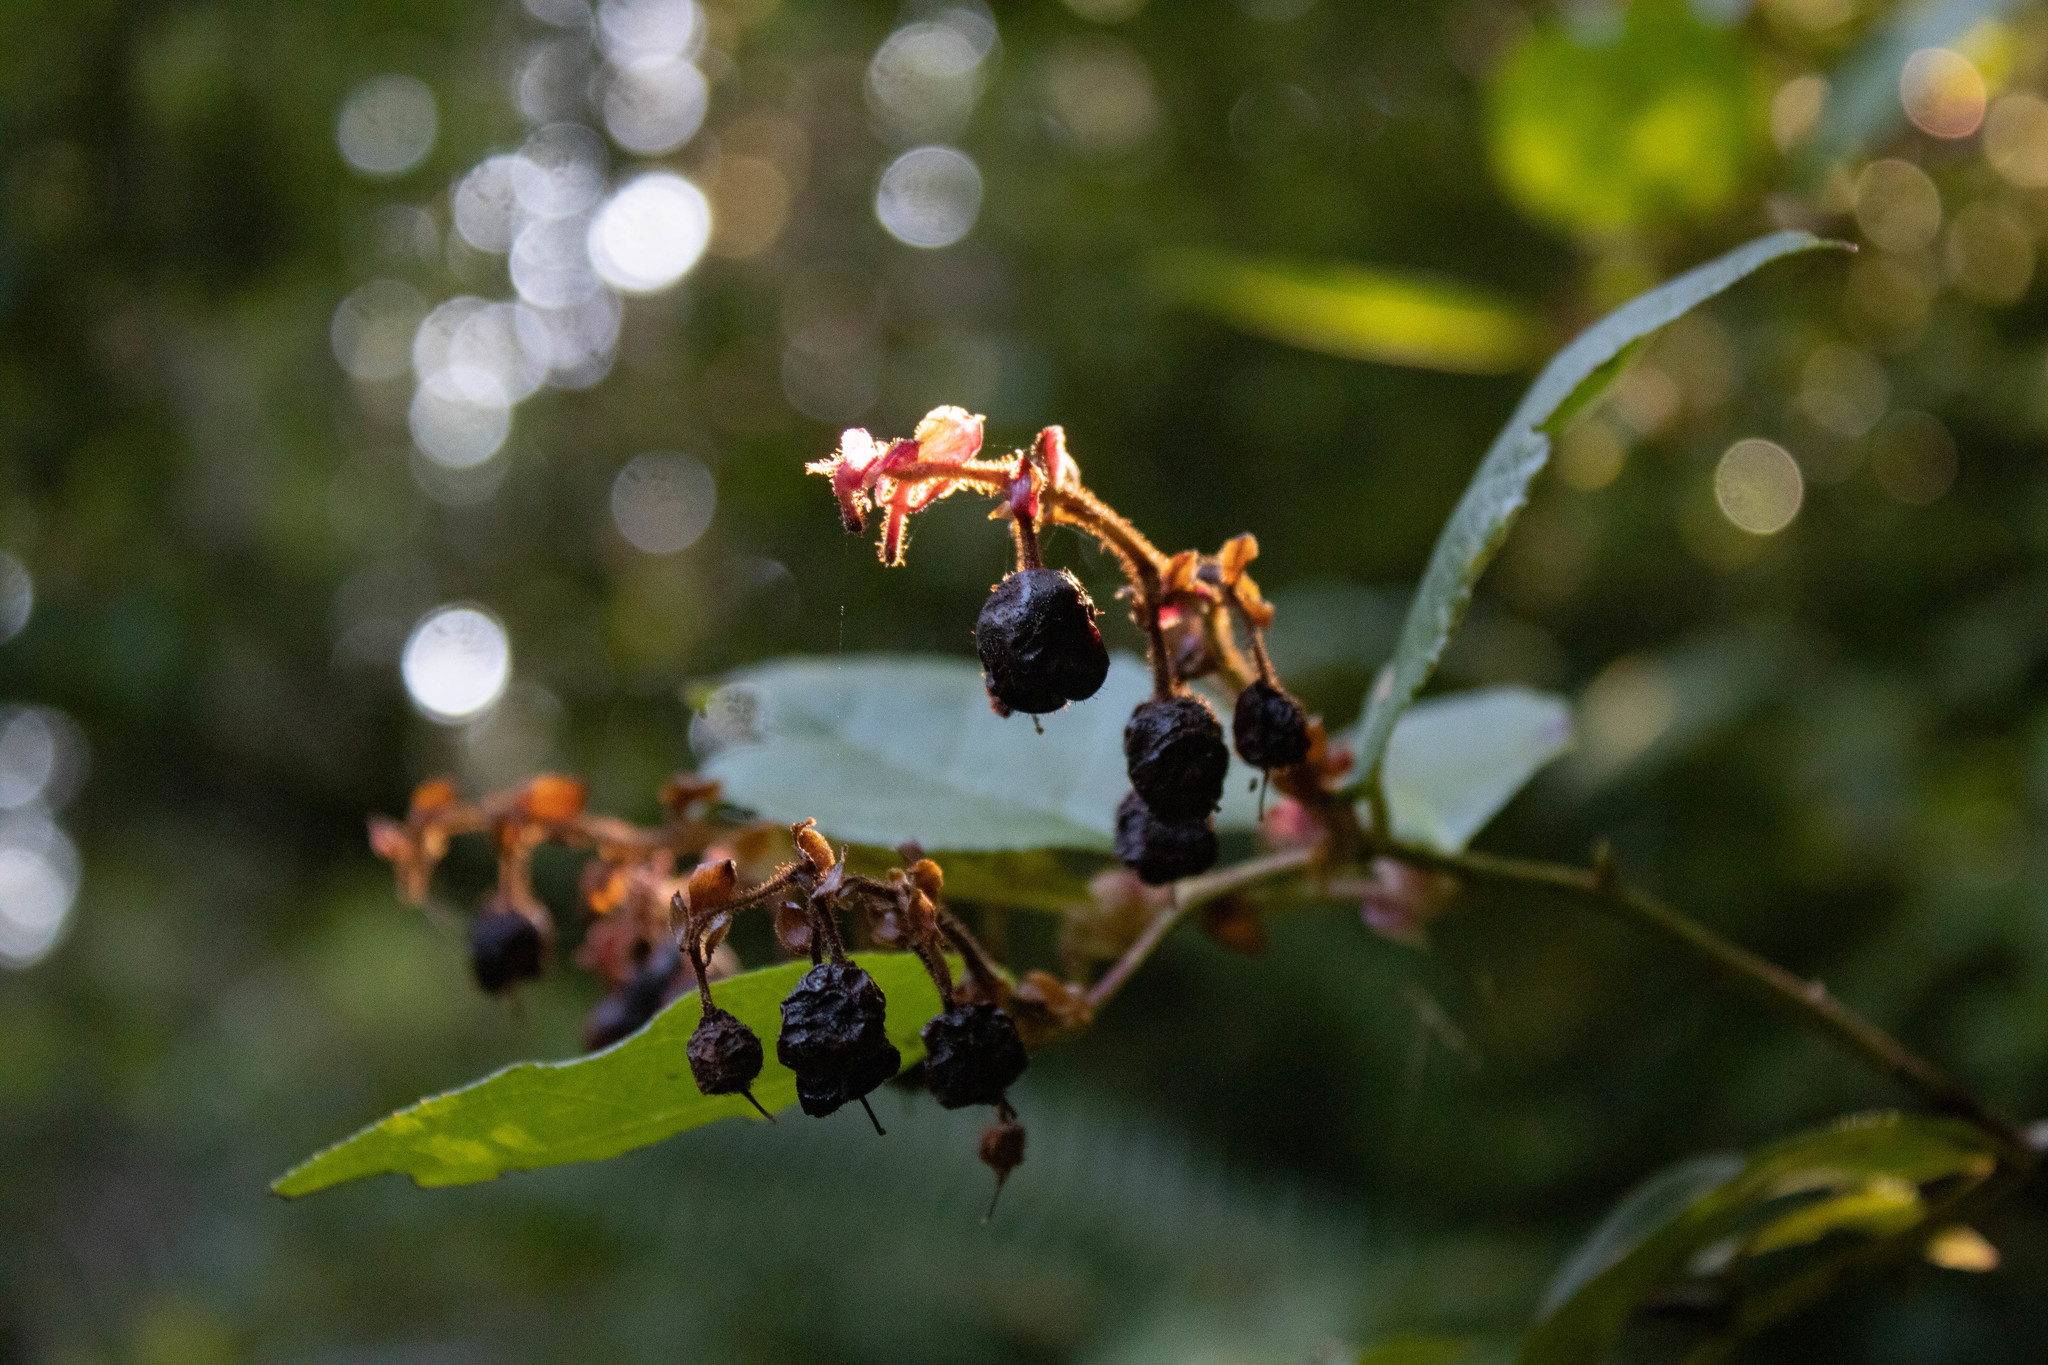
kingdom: Plantae
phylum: Tracheophyta
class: Magnoliopsida
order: Ericales
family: Ericaceae
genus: Gaultheria
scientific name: Gaultheria shallon
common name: Shallon
